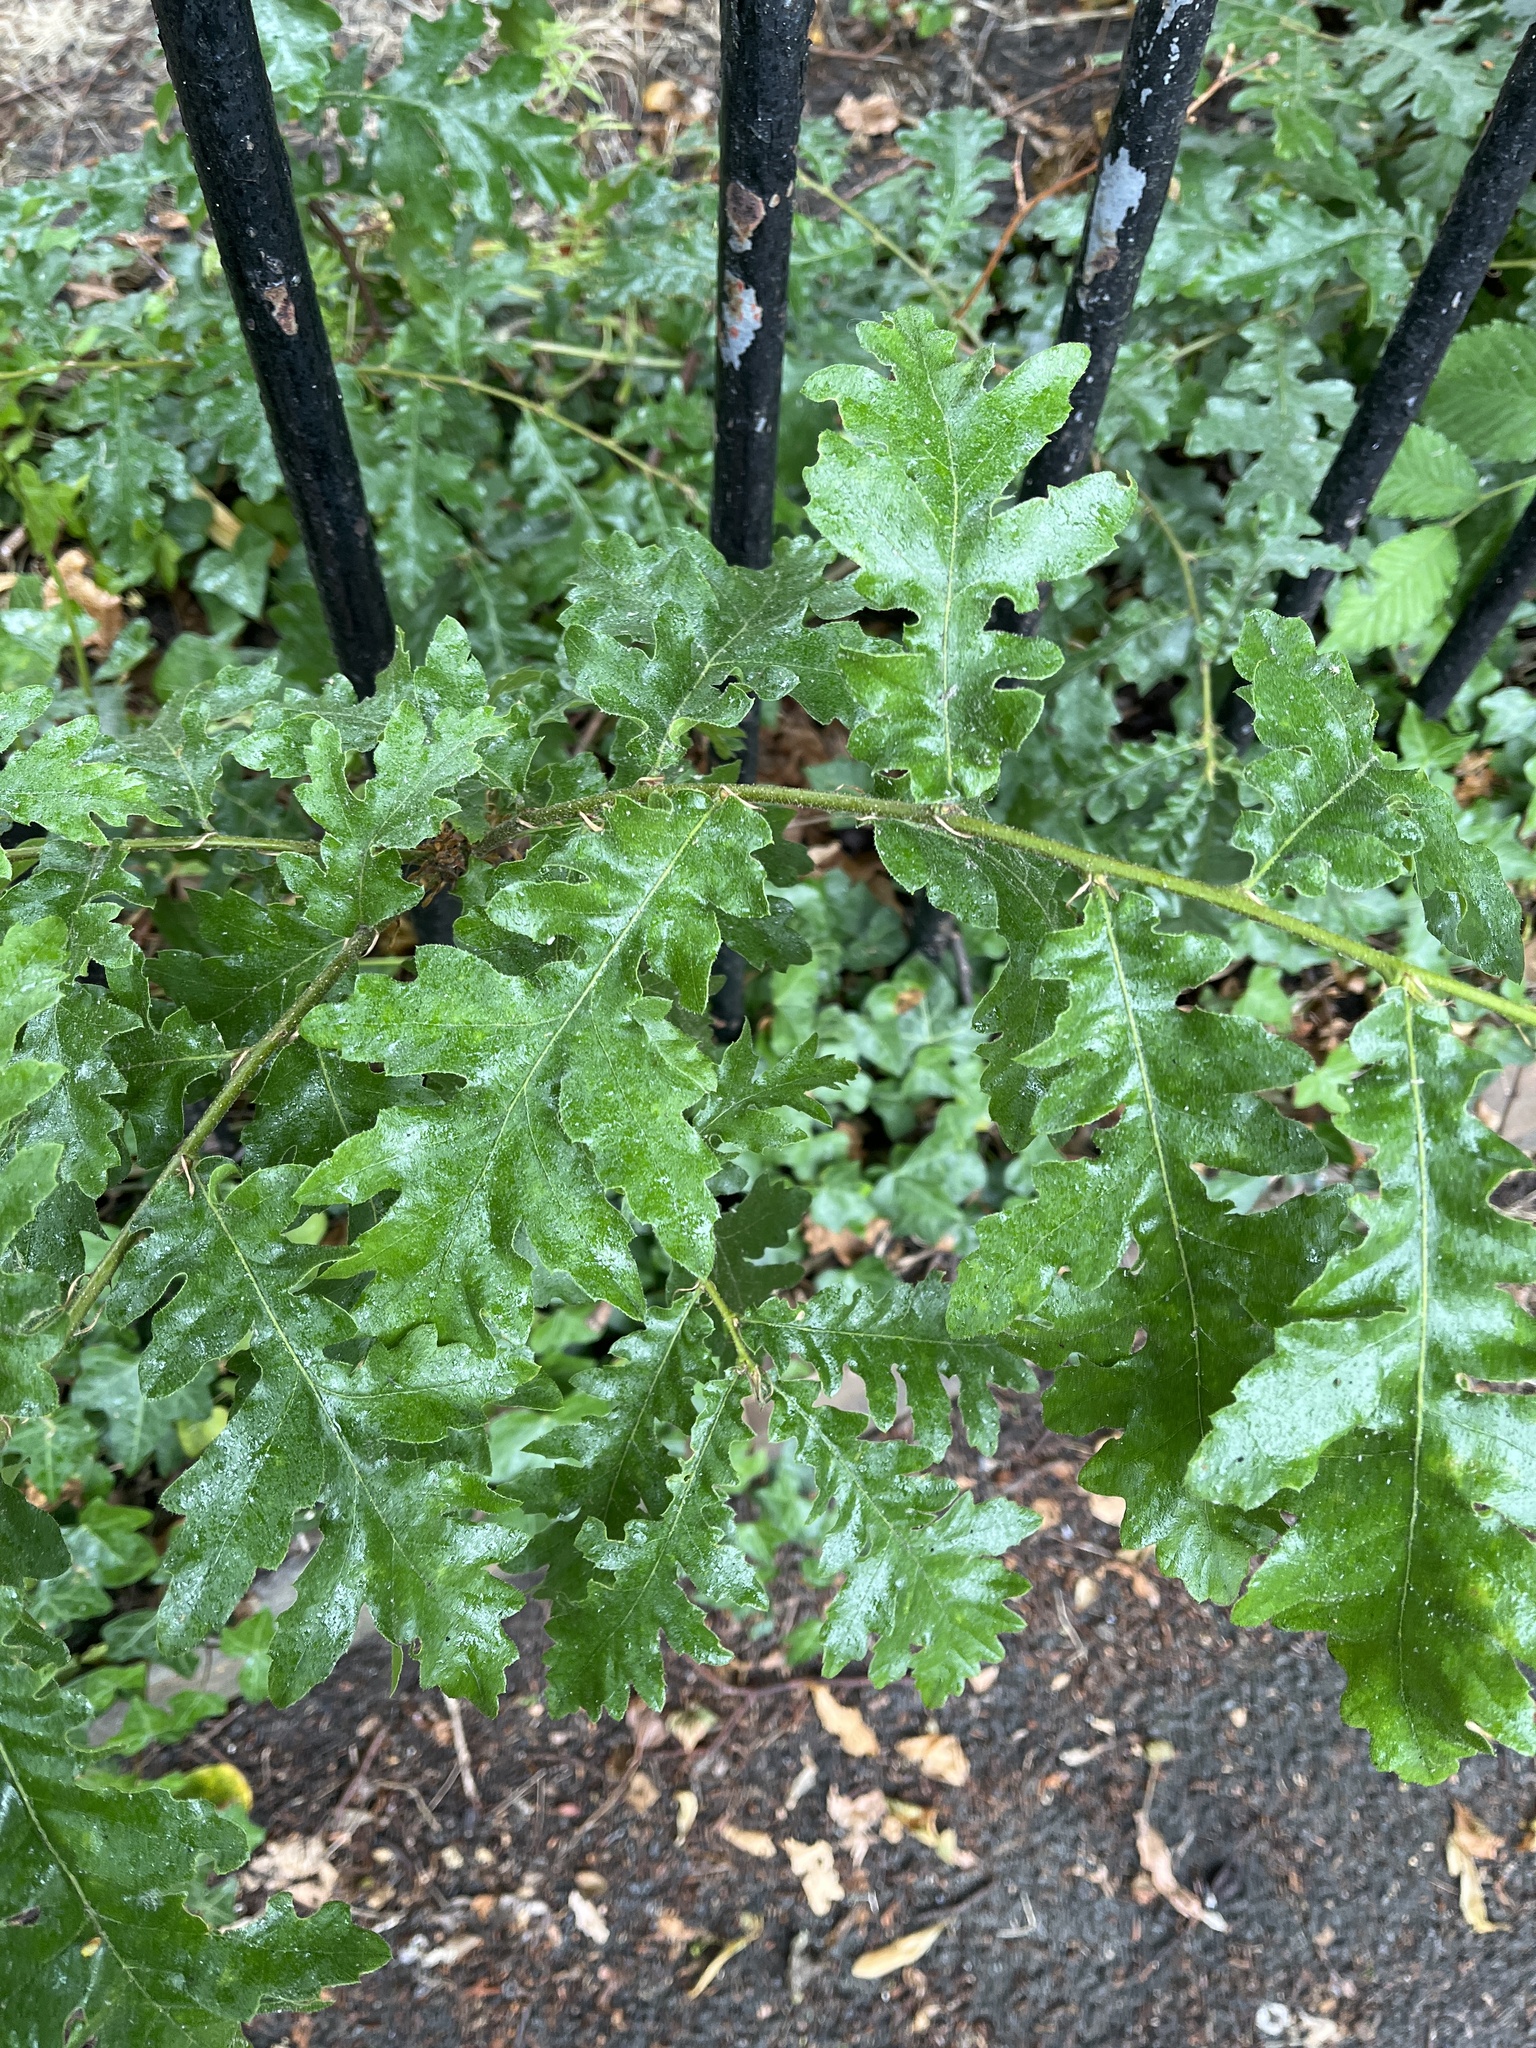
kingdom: Plantae
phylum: Tracheophyta
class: Magnoliopsida
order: Fagales
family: Fagaceae
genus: Quercus
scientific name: Quercus cerris
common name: Turkey oak
